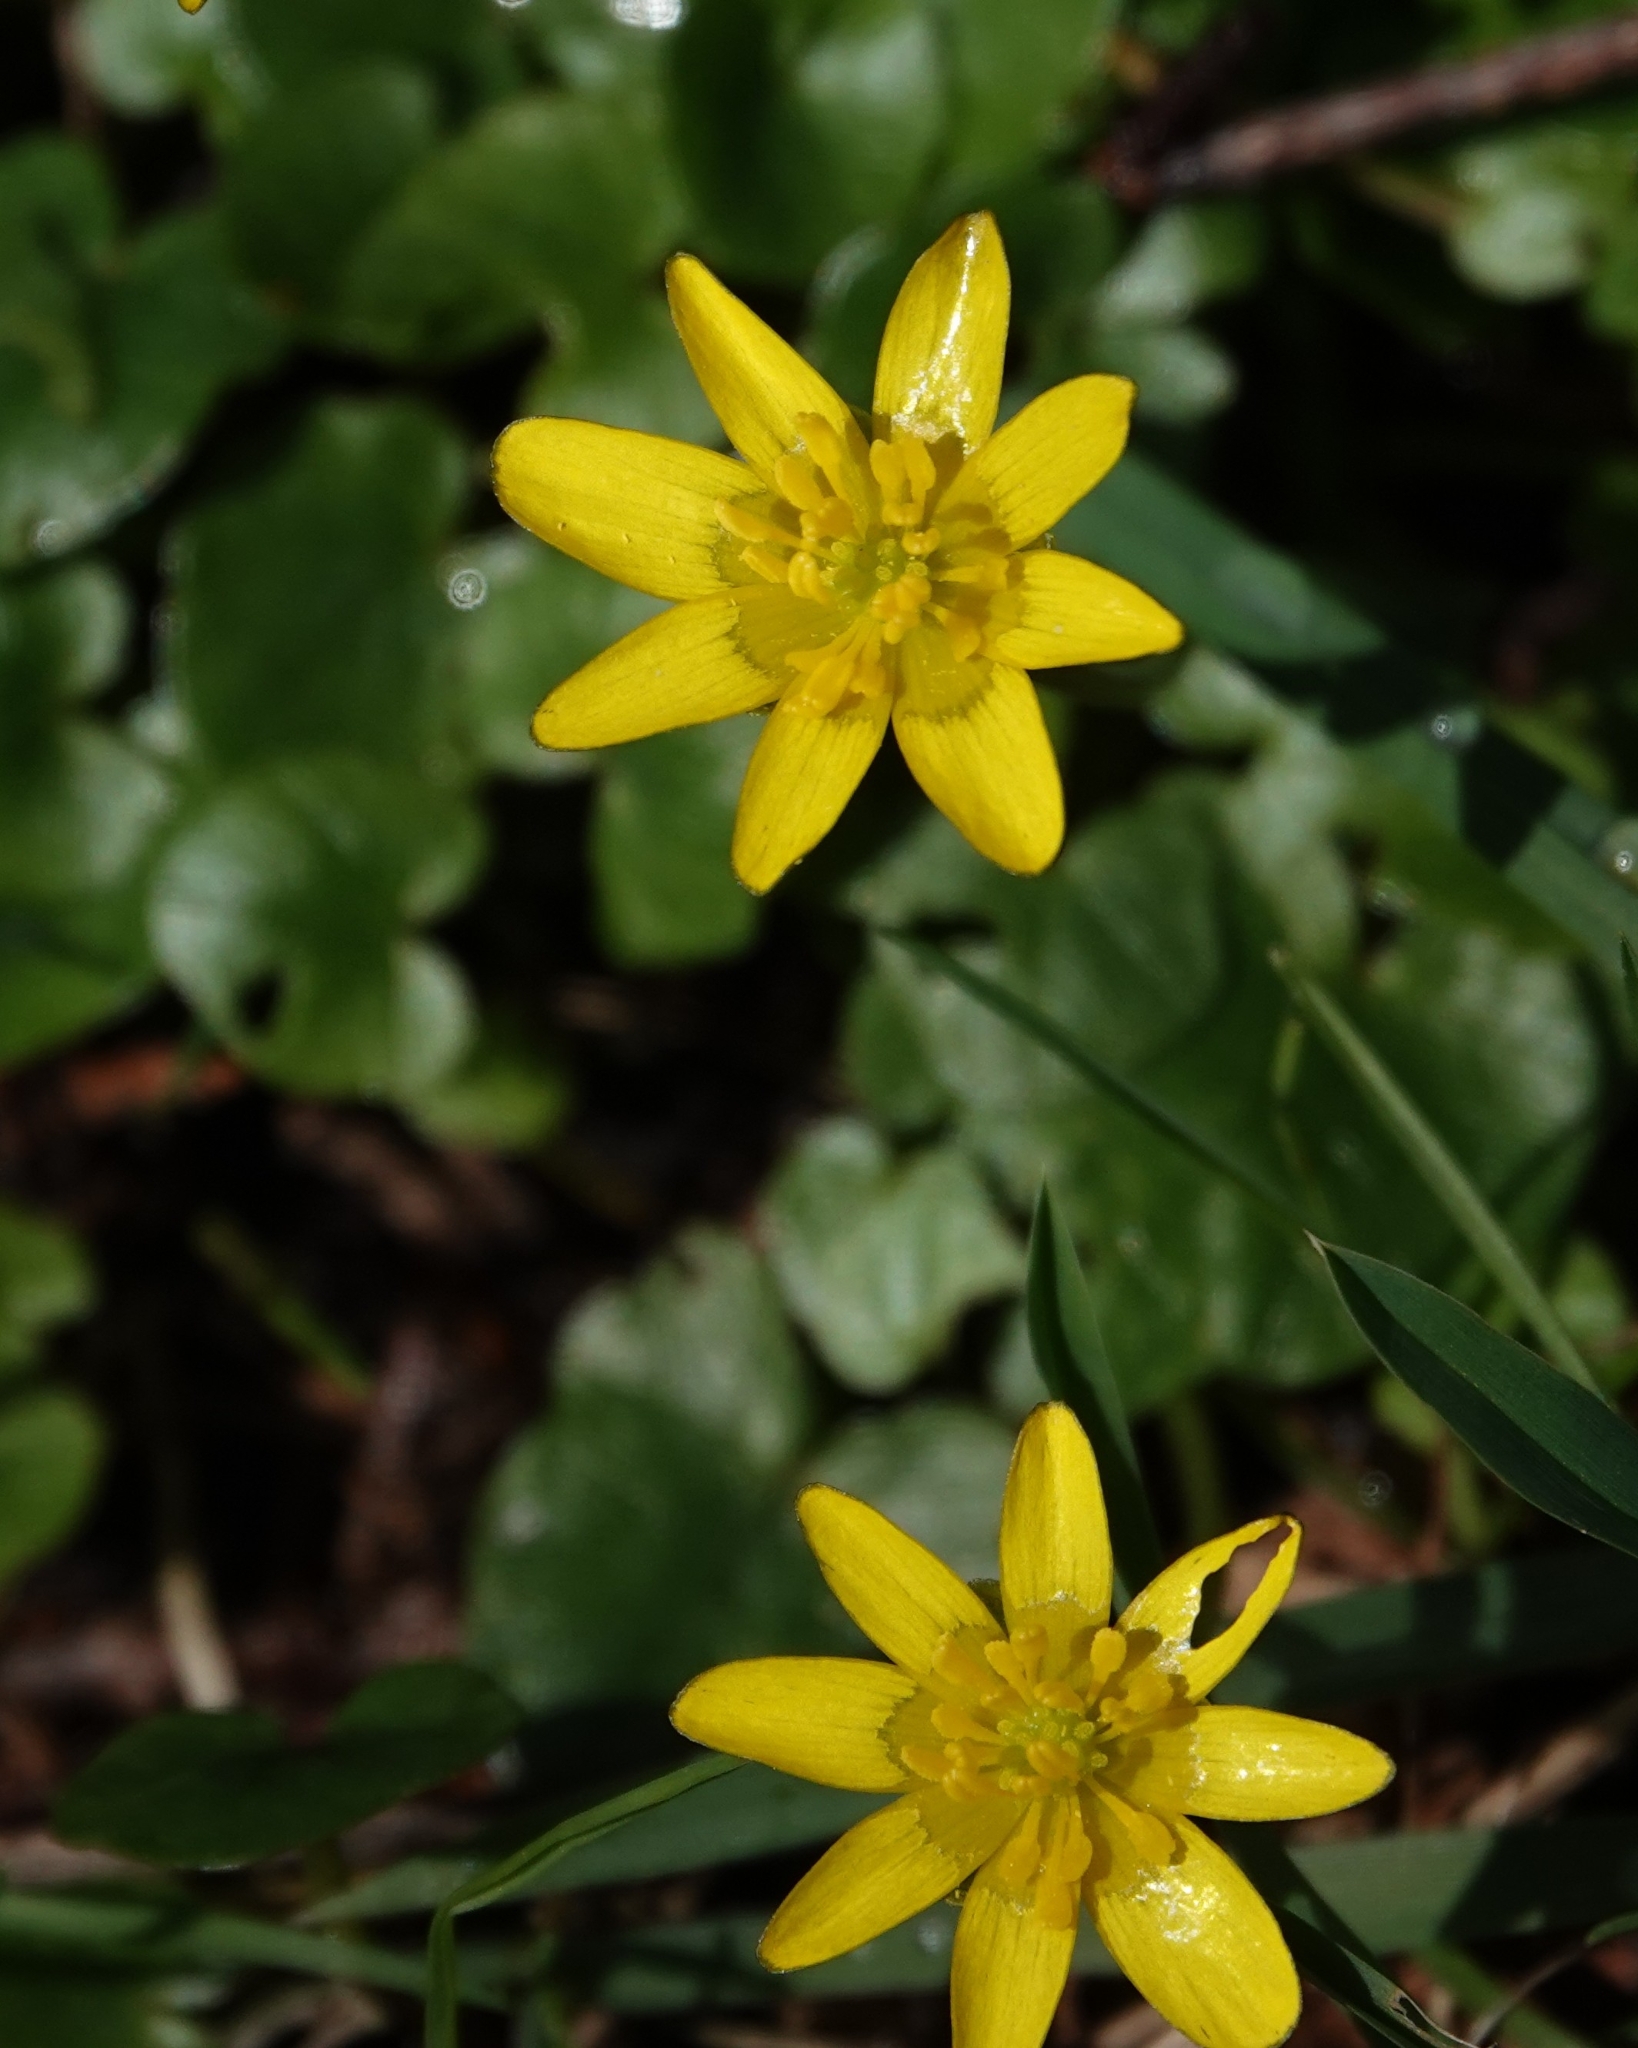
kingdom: Plantae
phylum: Tracheophyta
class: Magnoliopsida
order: Ranunculales
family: Ranunculaceae
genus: Ficaria
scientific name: Ficaria verna
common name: Lesser celandine
